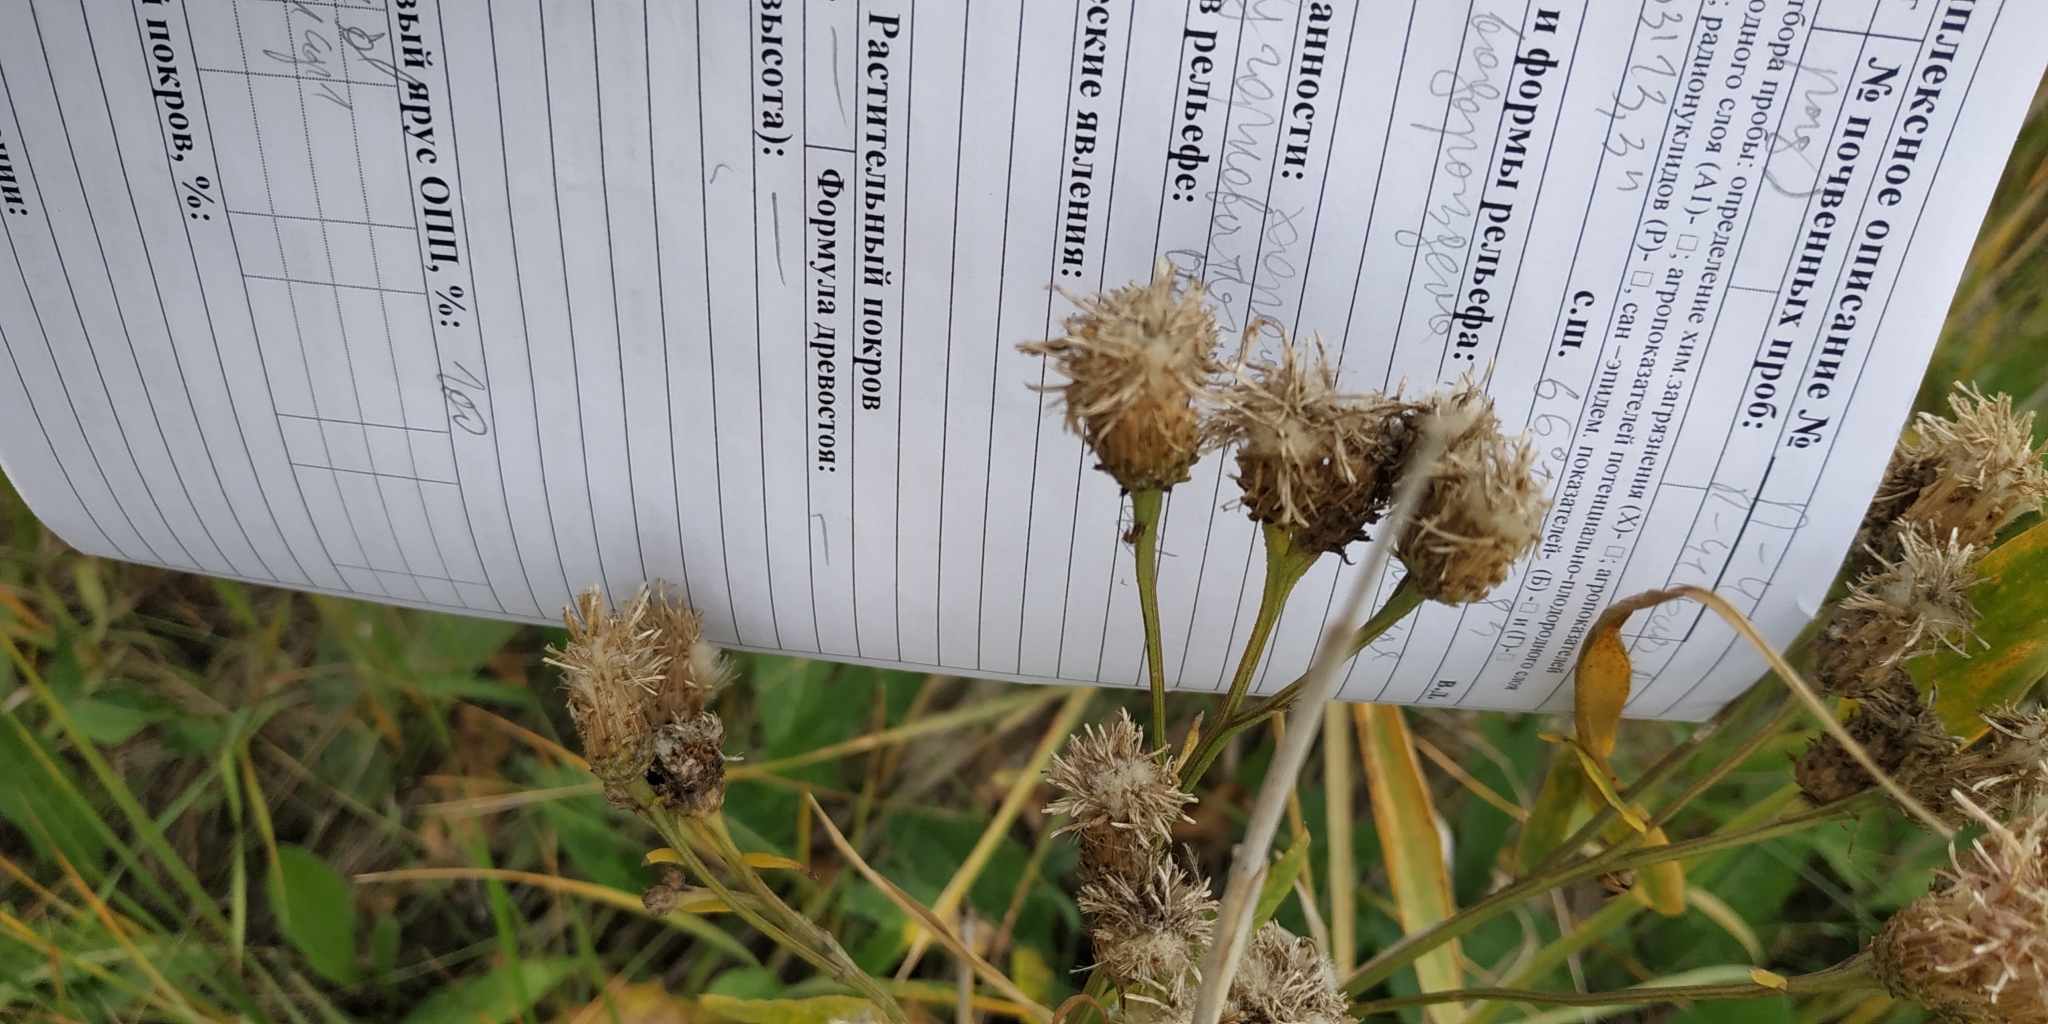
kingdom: Plantae
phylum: Tracheophyta
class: Magnoliopsida
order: Asterales
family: Asteraceae
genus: Saussurea
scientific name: Saussurea amara
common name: Alberta sawwort
